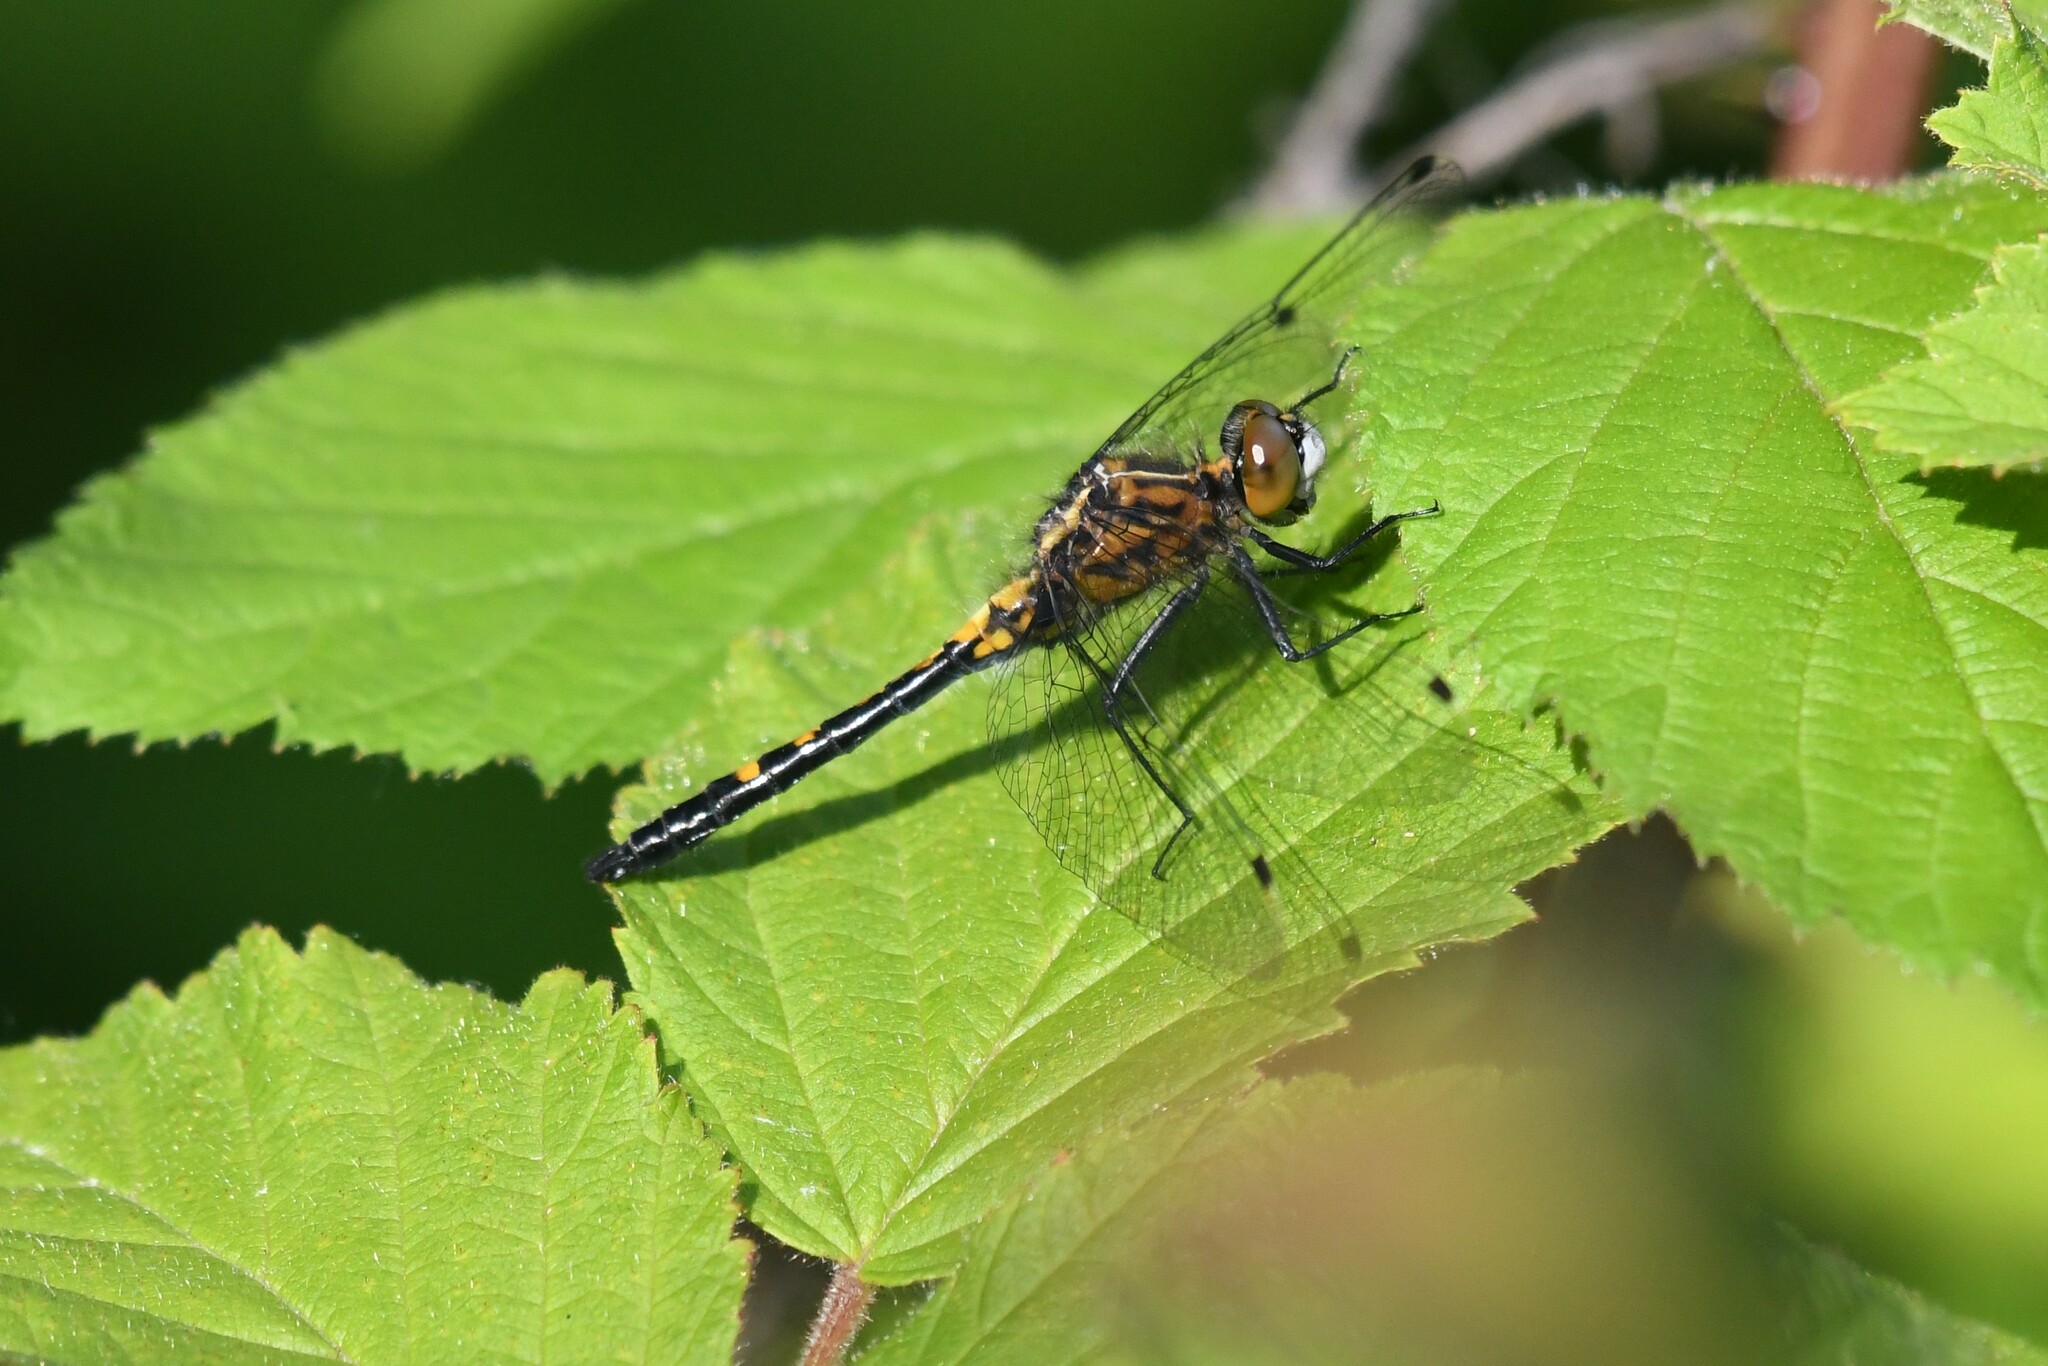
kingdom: Animalia
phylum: Arthropoda
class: Insecta
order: Odonata
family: Libellulidae
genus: Leucorrhinia
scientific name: Leucorrhinia intacta
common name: Dot-tailed whiteface
